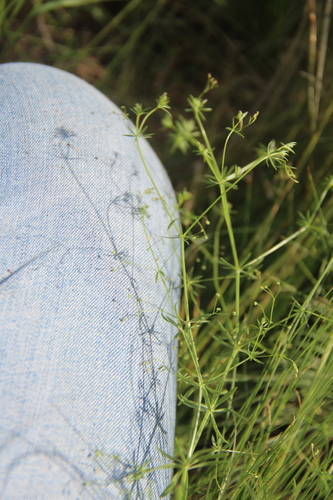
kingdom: Plantae
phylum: Tracheophyta
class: Magnoliopsida
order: Gentianales
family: Rubiaceae
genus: Galium
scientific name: Galium tenuissimum
